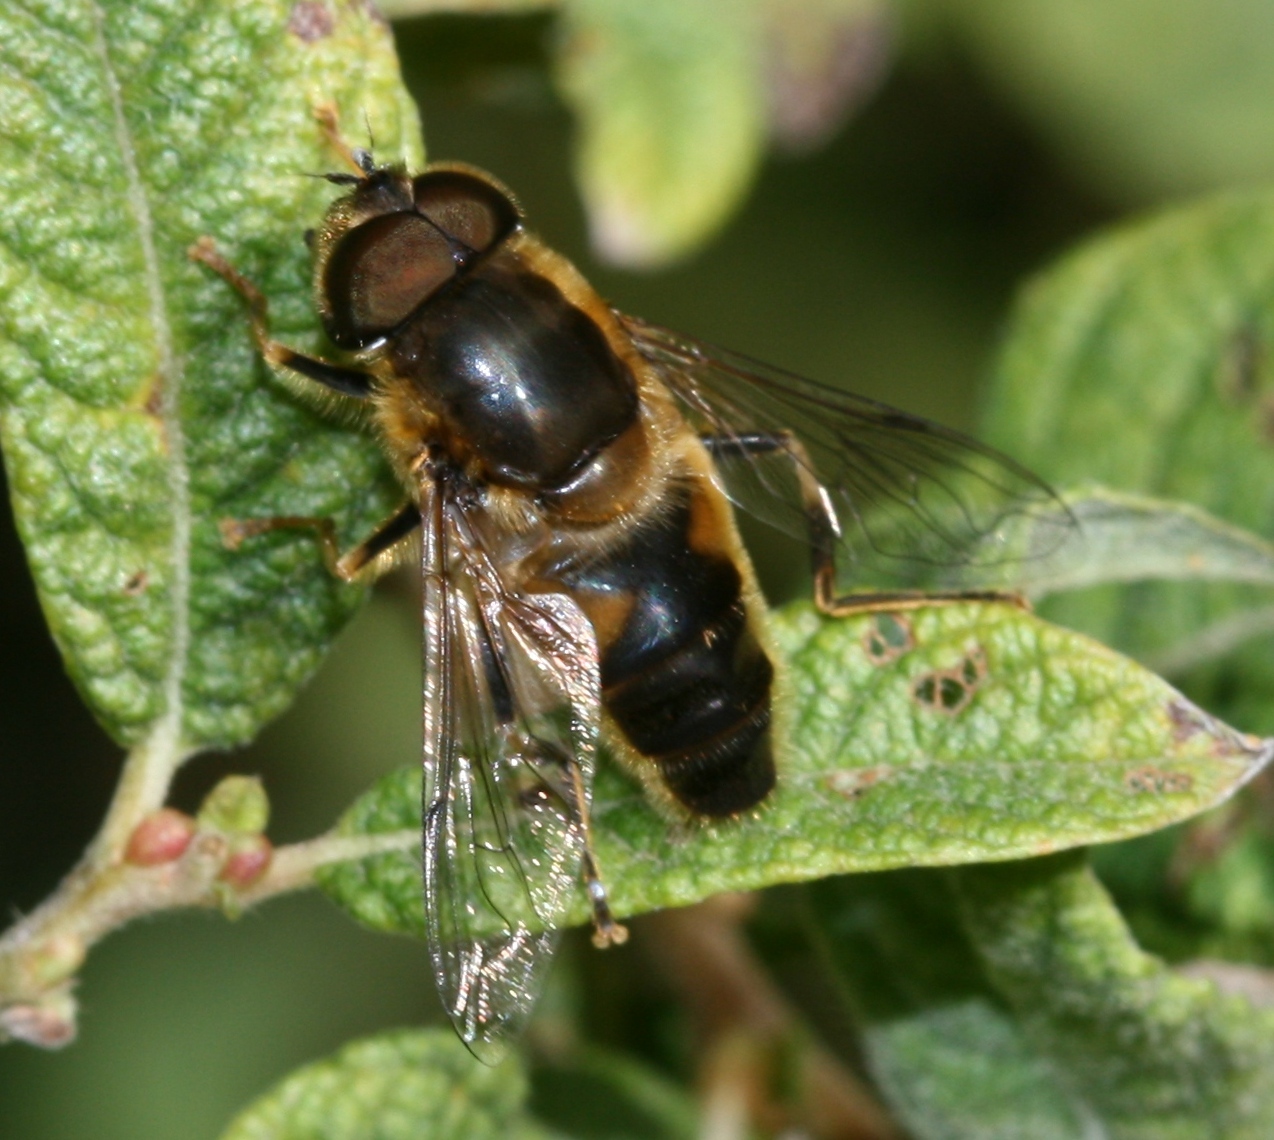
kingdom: Animalia
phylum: Arthropoda
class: Insecta
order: Diptera
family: Syrphidae
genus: Eristalis
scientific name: Eristalis pertinax
